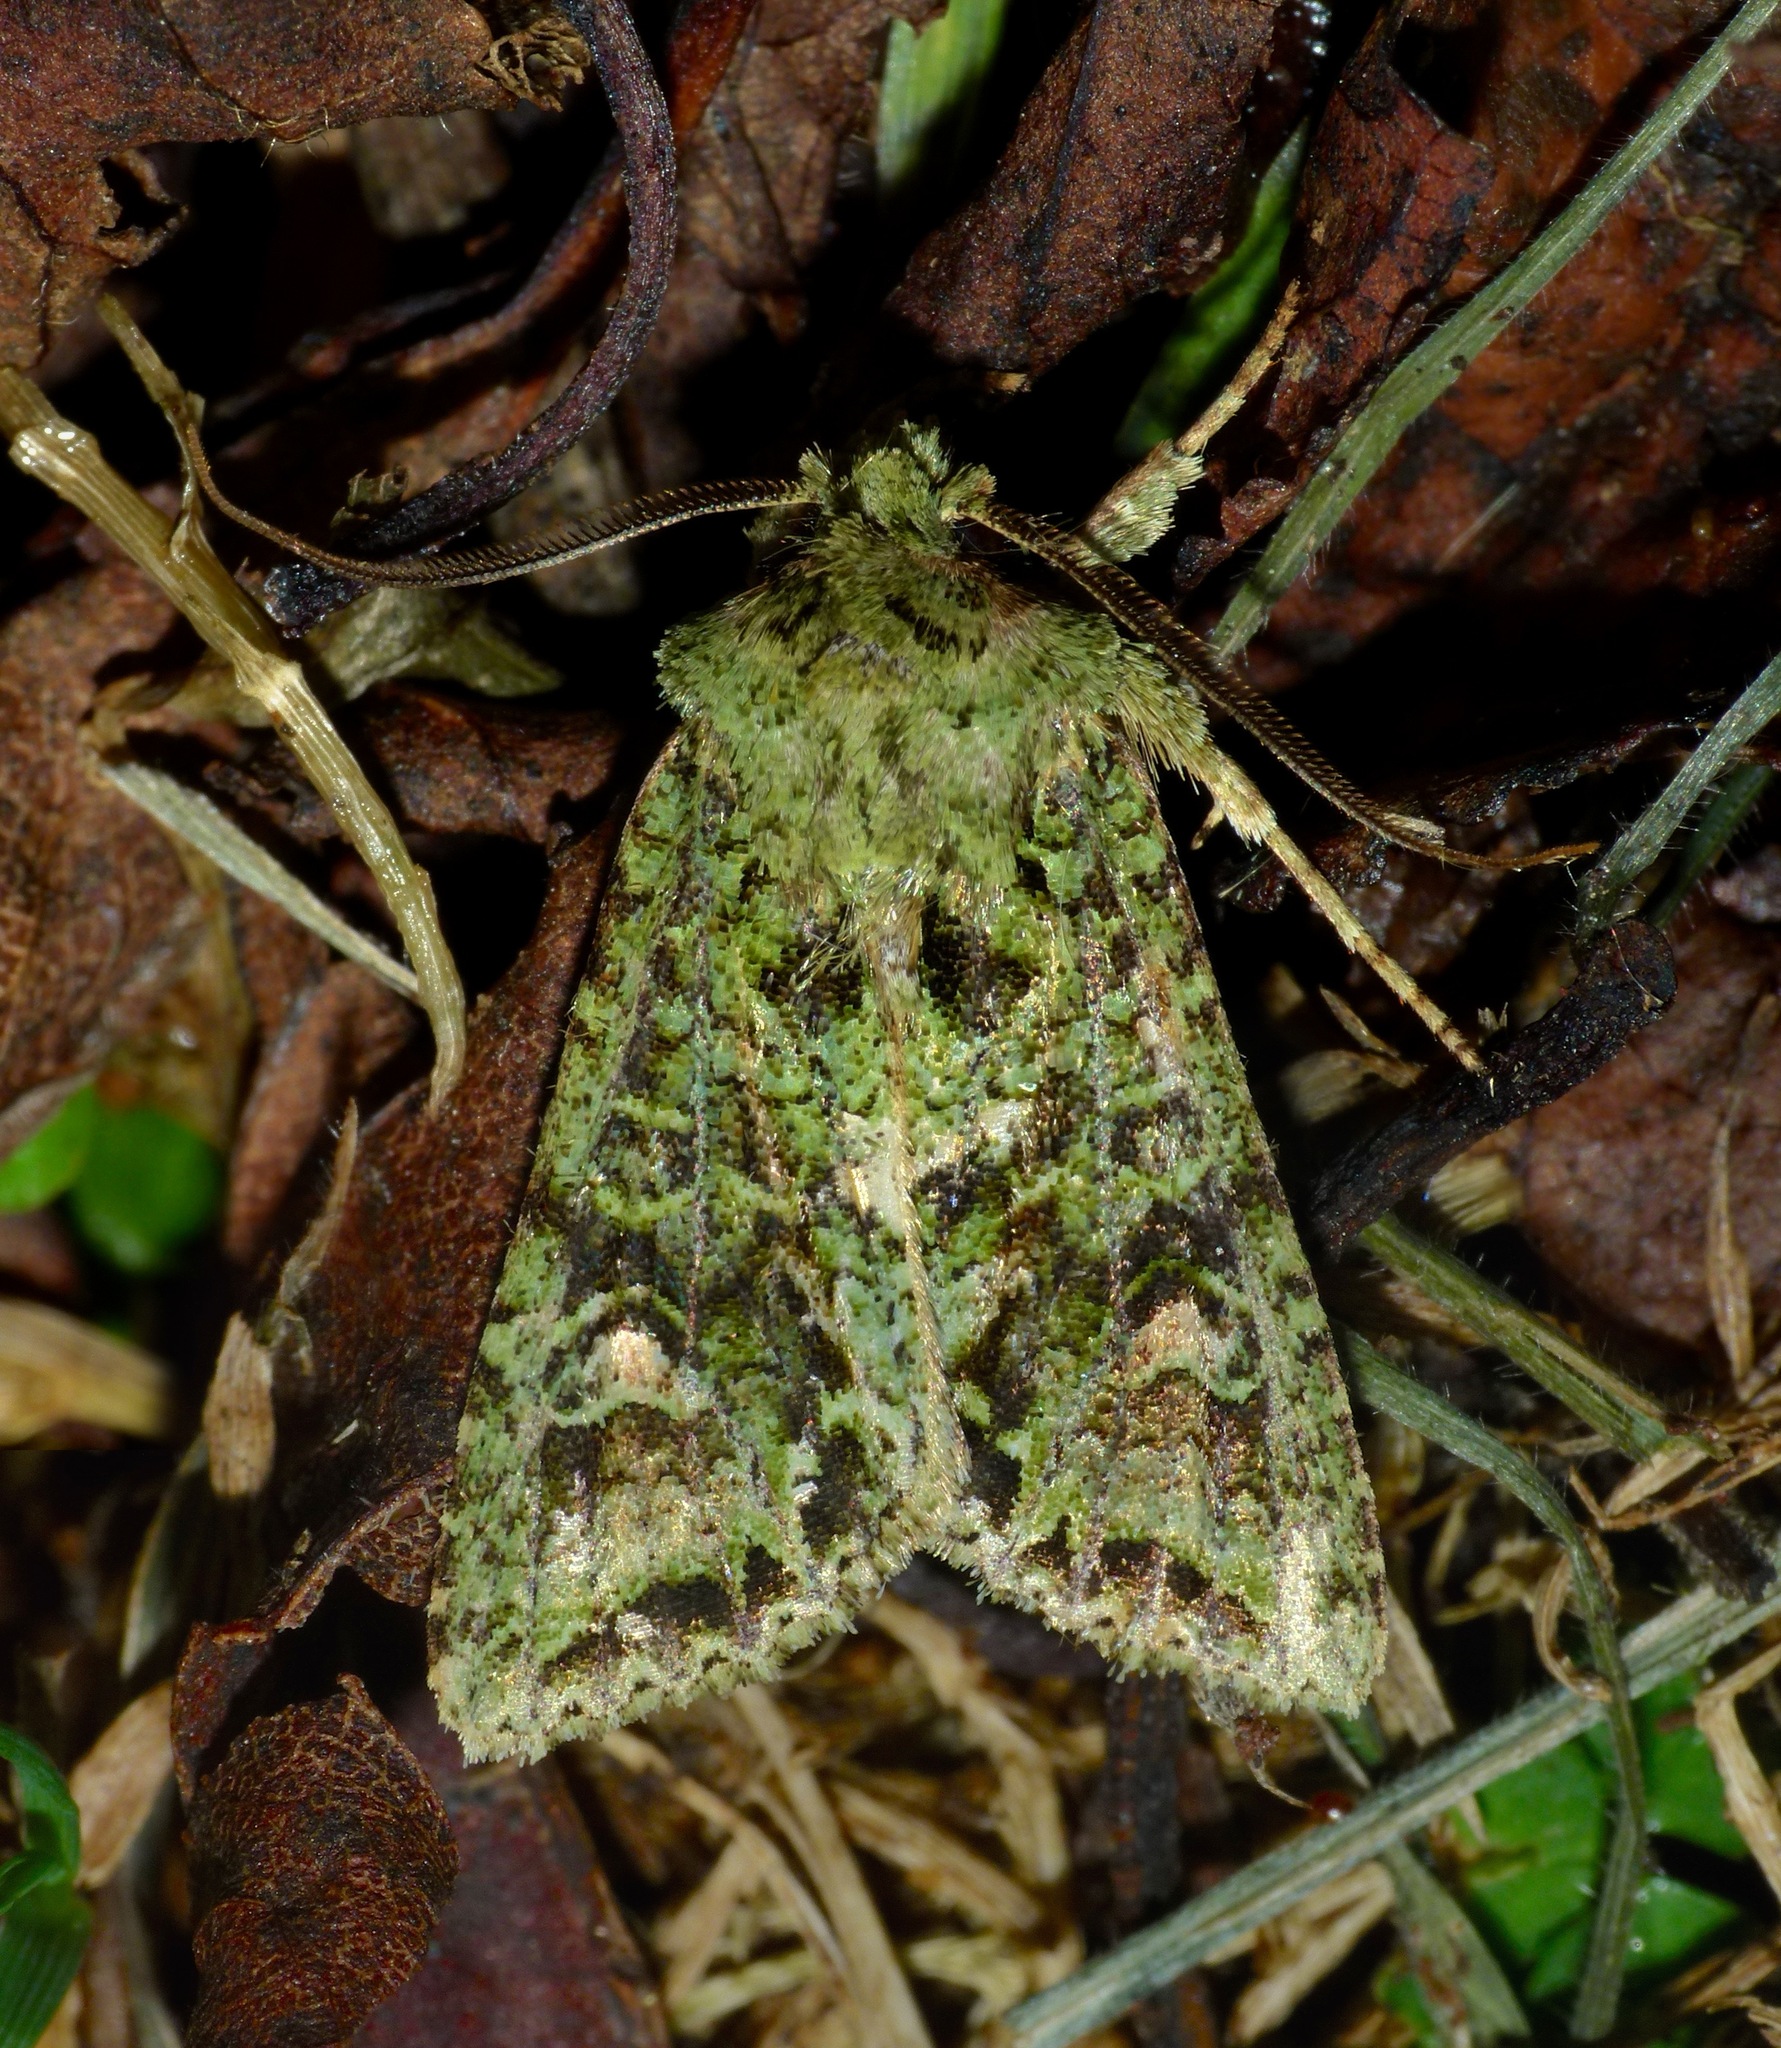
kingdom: Animalia
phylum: Arthropoda
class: Insecta
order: Lepidoptera
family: Noctuidae
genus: Ichneutica
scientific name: Ichneutica
